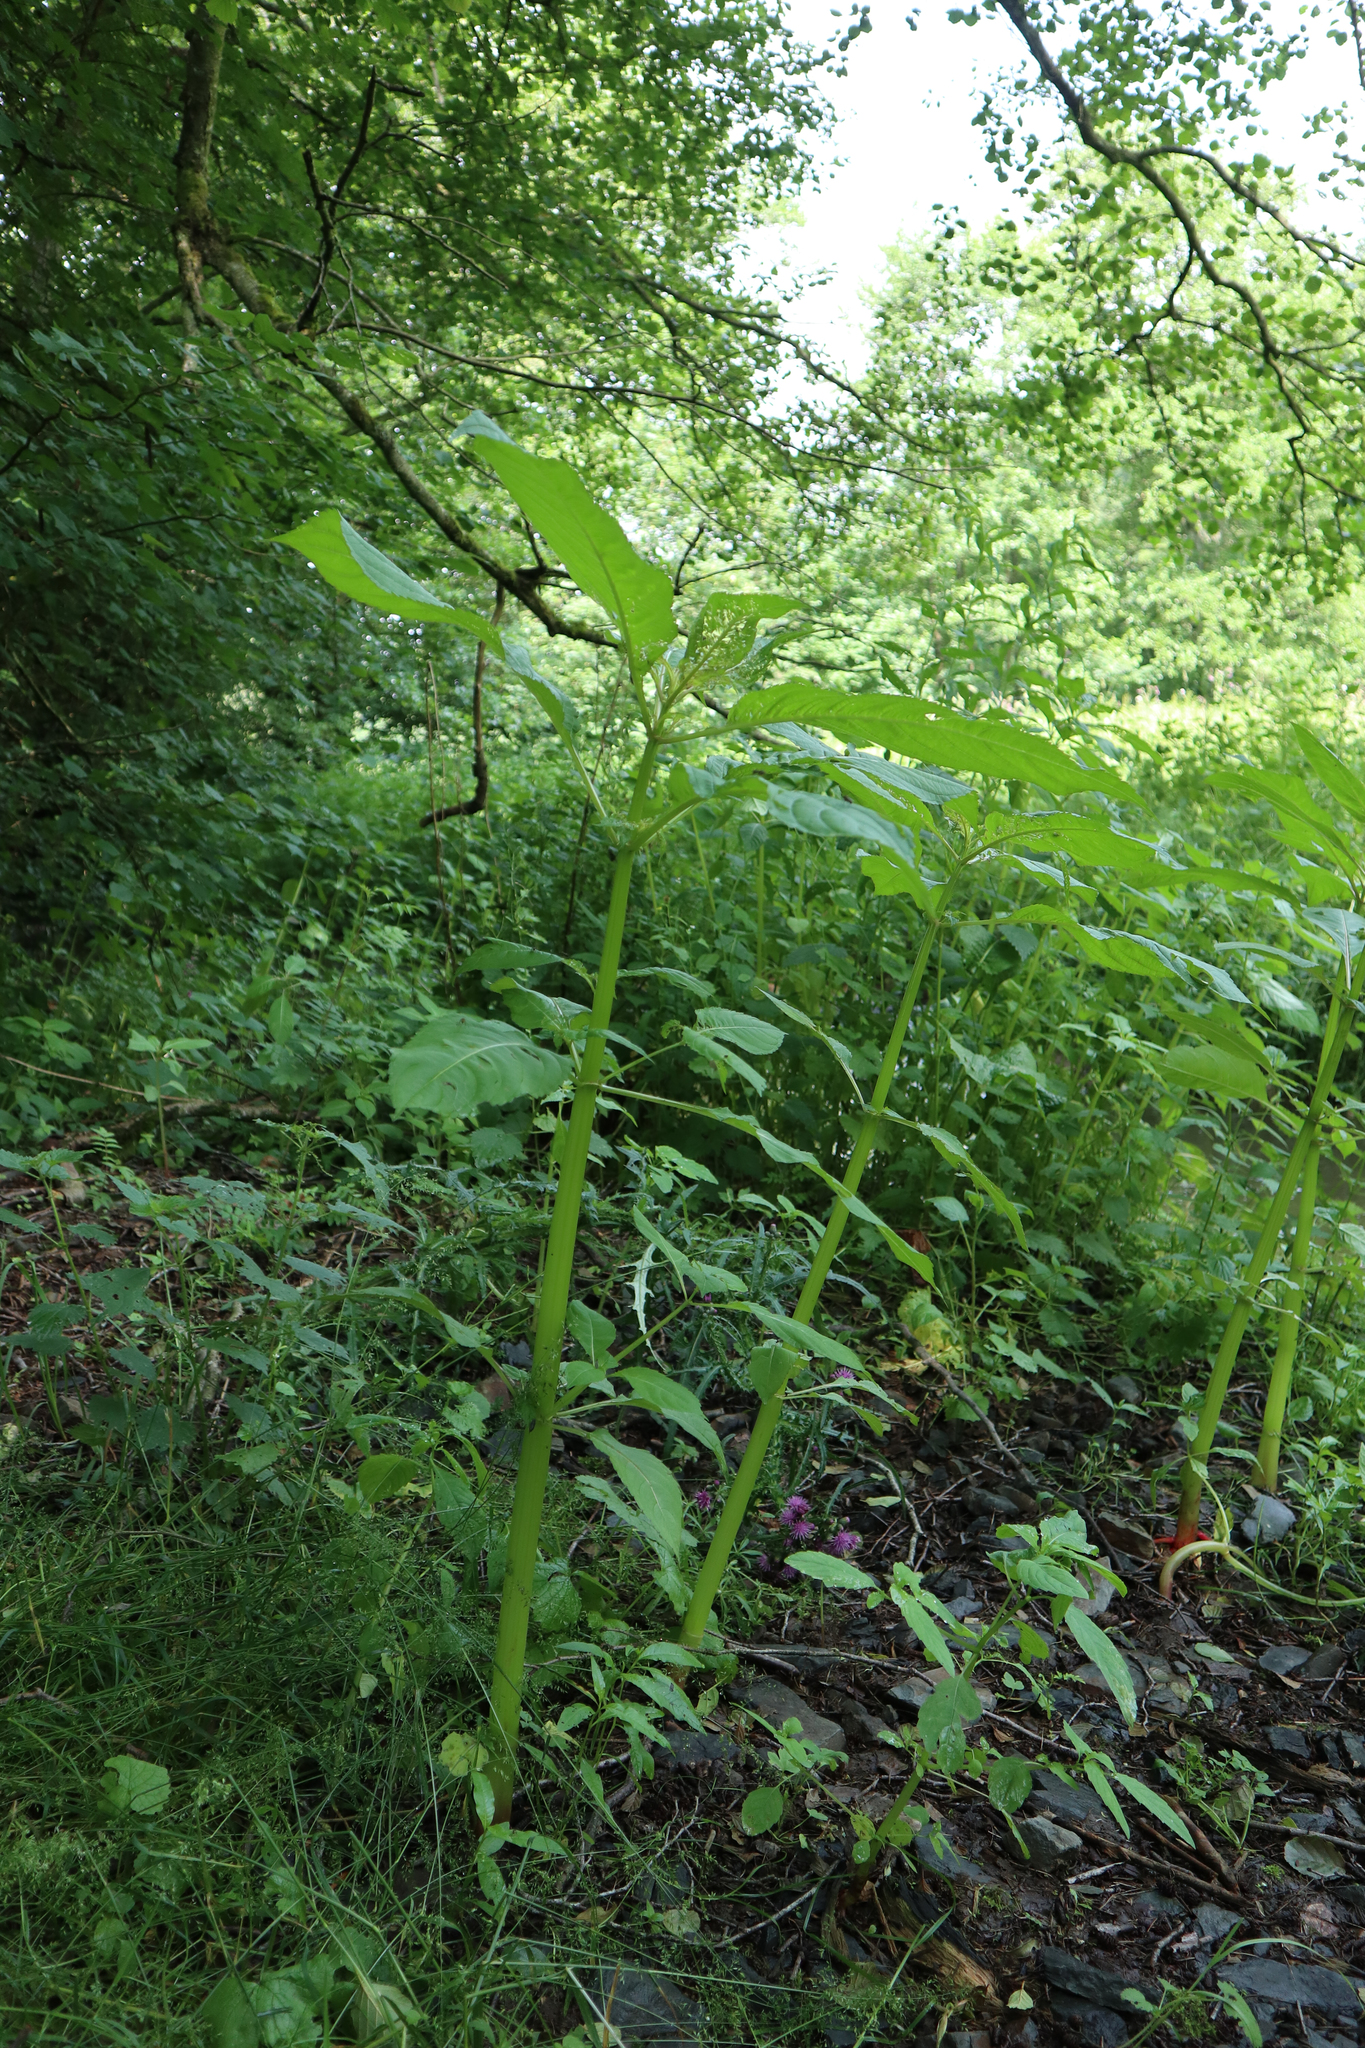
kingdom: Plantae
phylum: Tracheophyta
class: Magnoliopsida
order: Ericales
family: Balsaminaceae
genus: Impatiens
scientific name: Impatiens glandulifera
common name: Himalayan balsam
